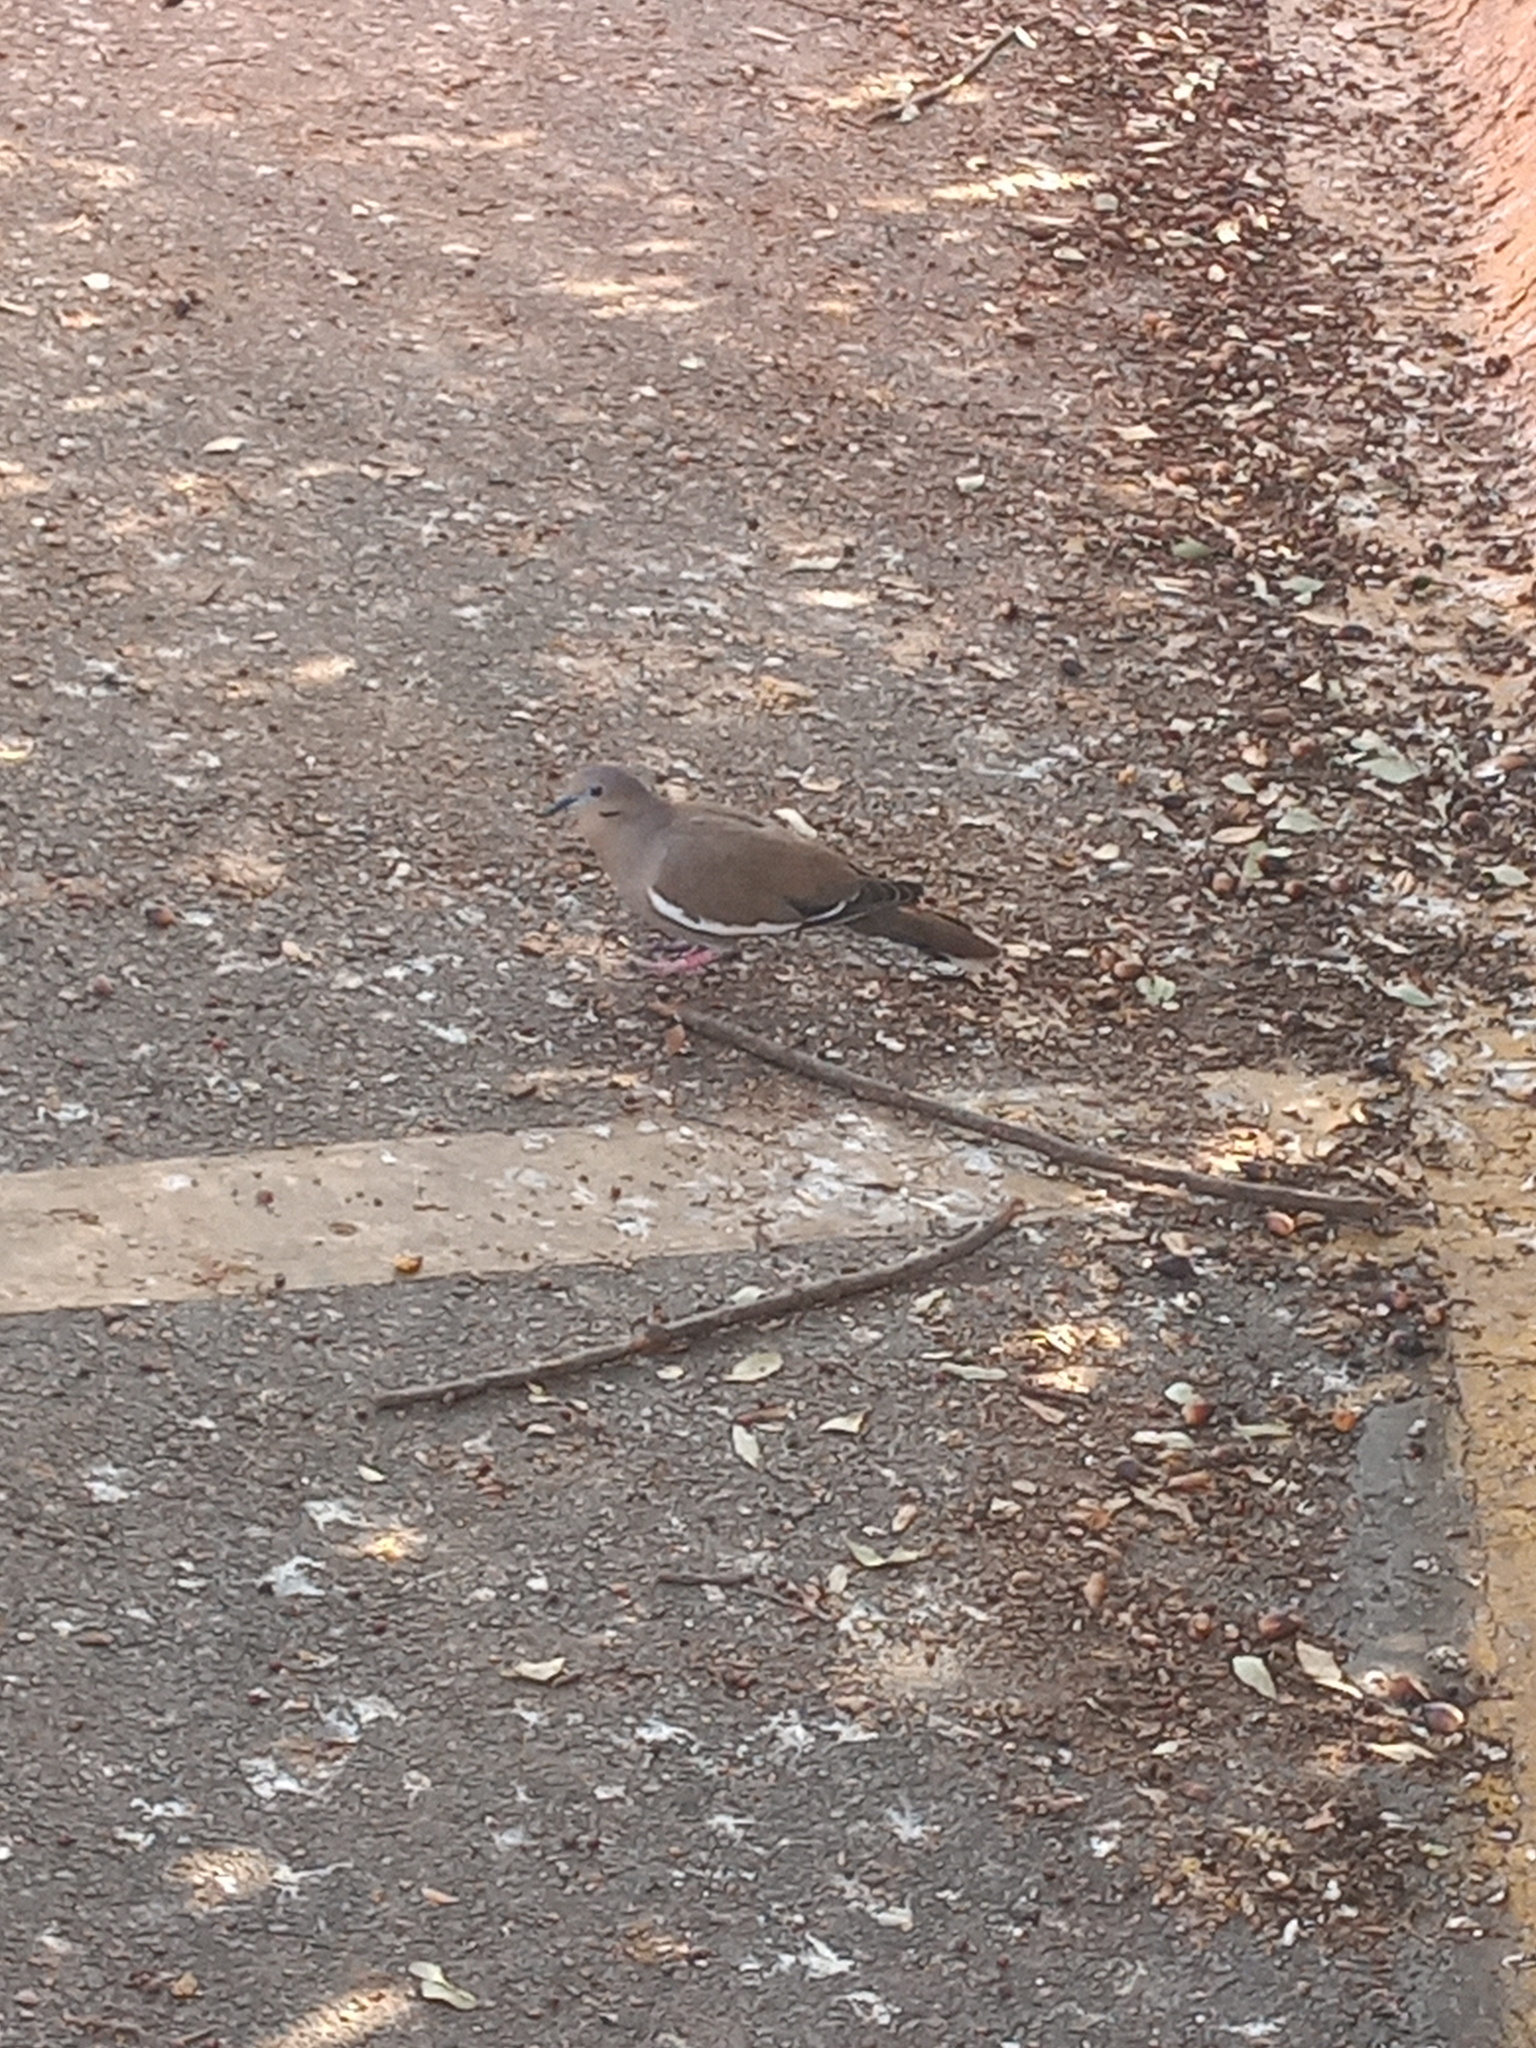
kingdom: Animalia
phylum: Chordata
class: Aves
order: Columbiformes
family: Columbidae
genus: Zenaida
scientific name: Zenaida asiatica
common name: White-winged dove
